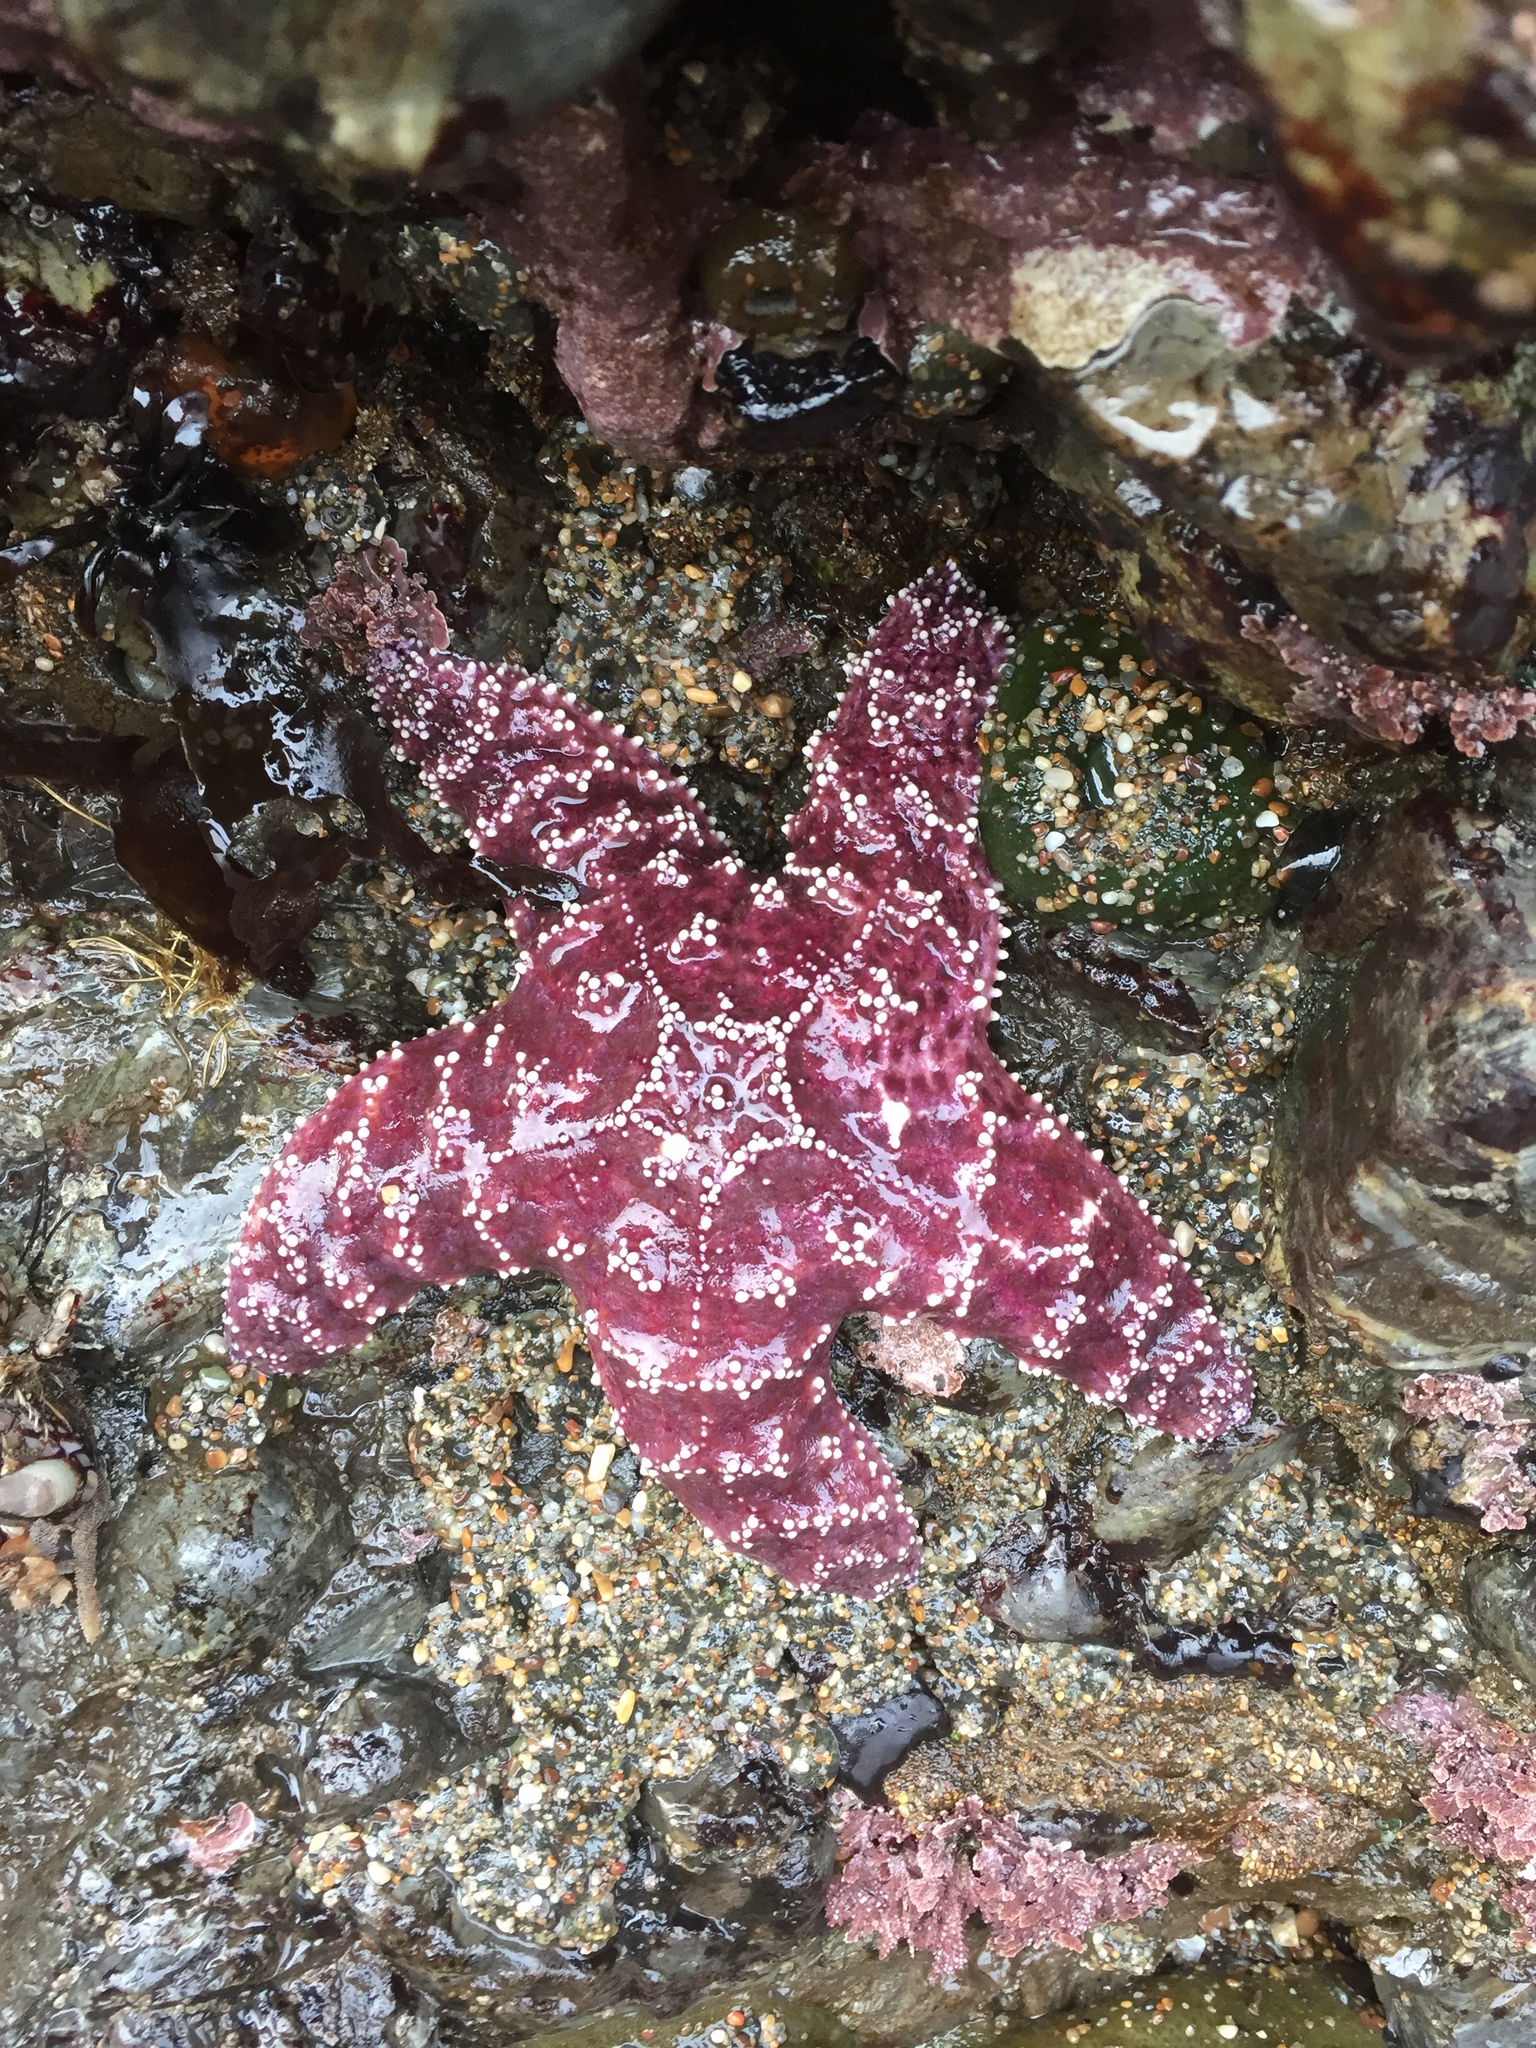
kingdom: Animalia
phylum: Echinodermata
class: Asteroidea
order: Forcipulatida
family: Asteriidae
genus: Pisaster
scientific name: Pisaster ochraceus
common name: Ochre stars
